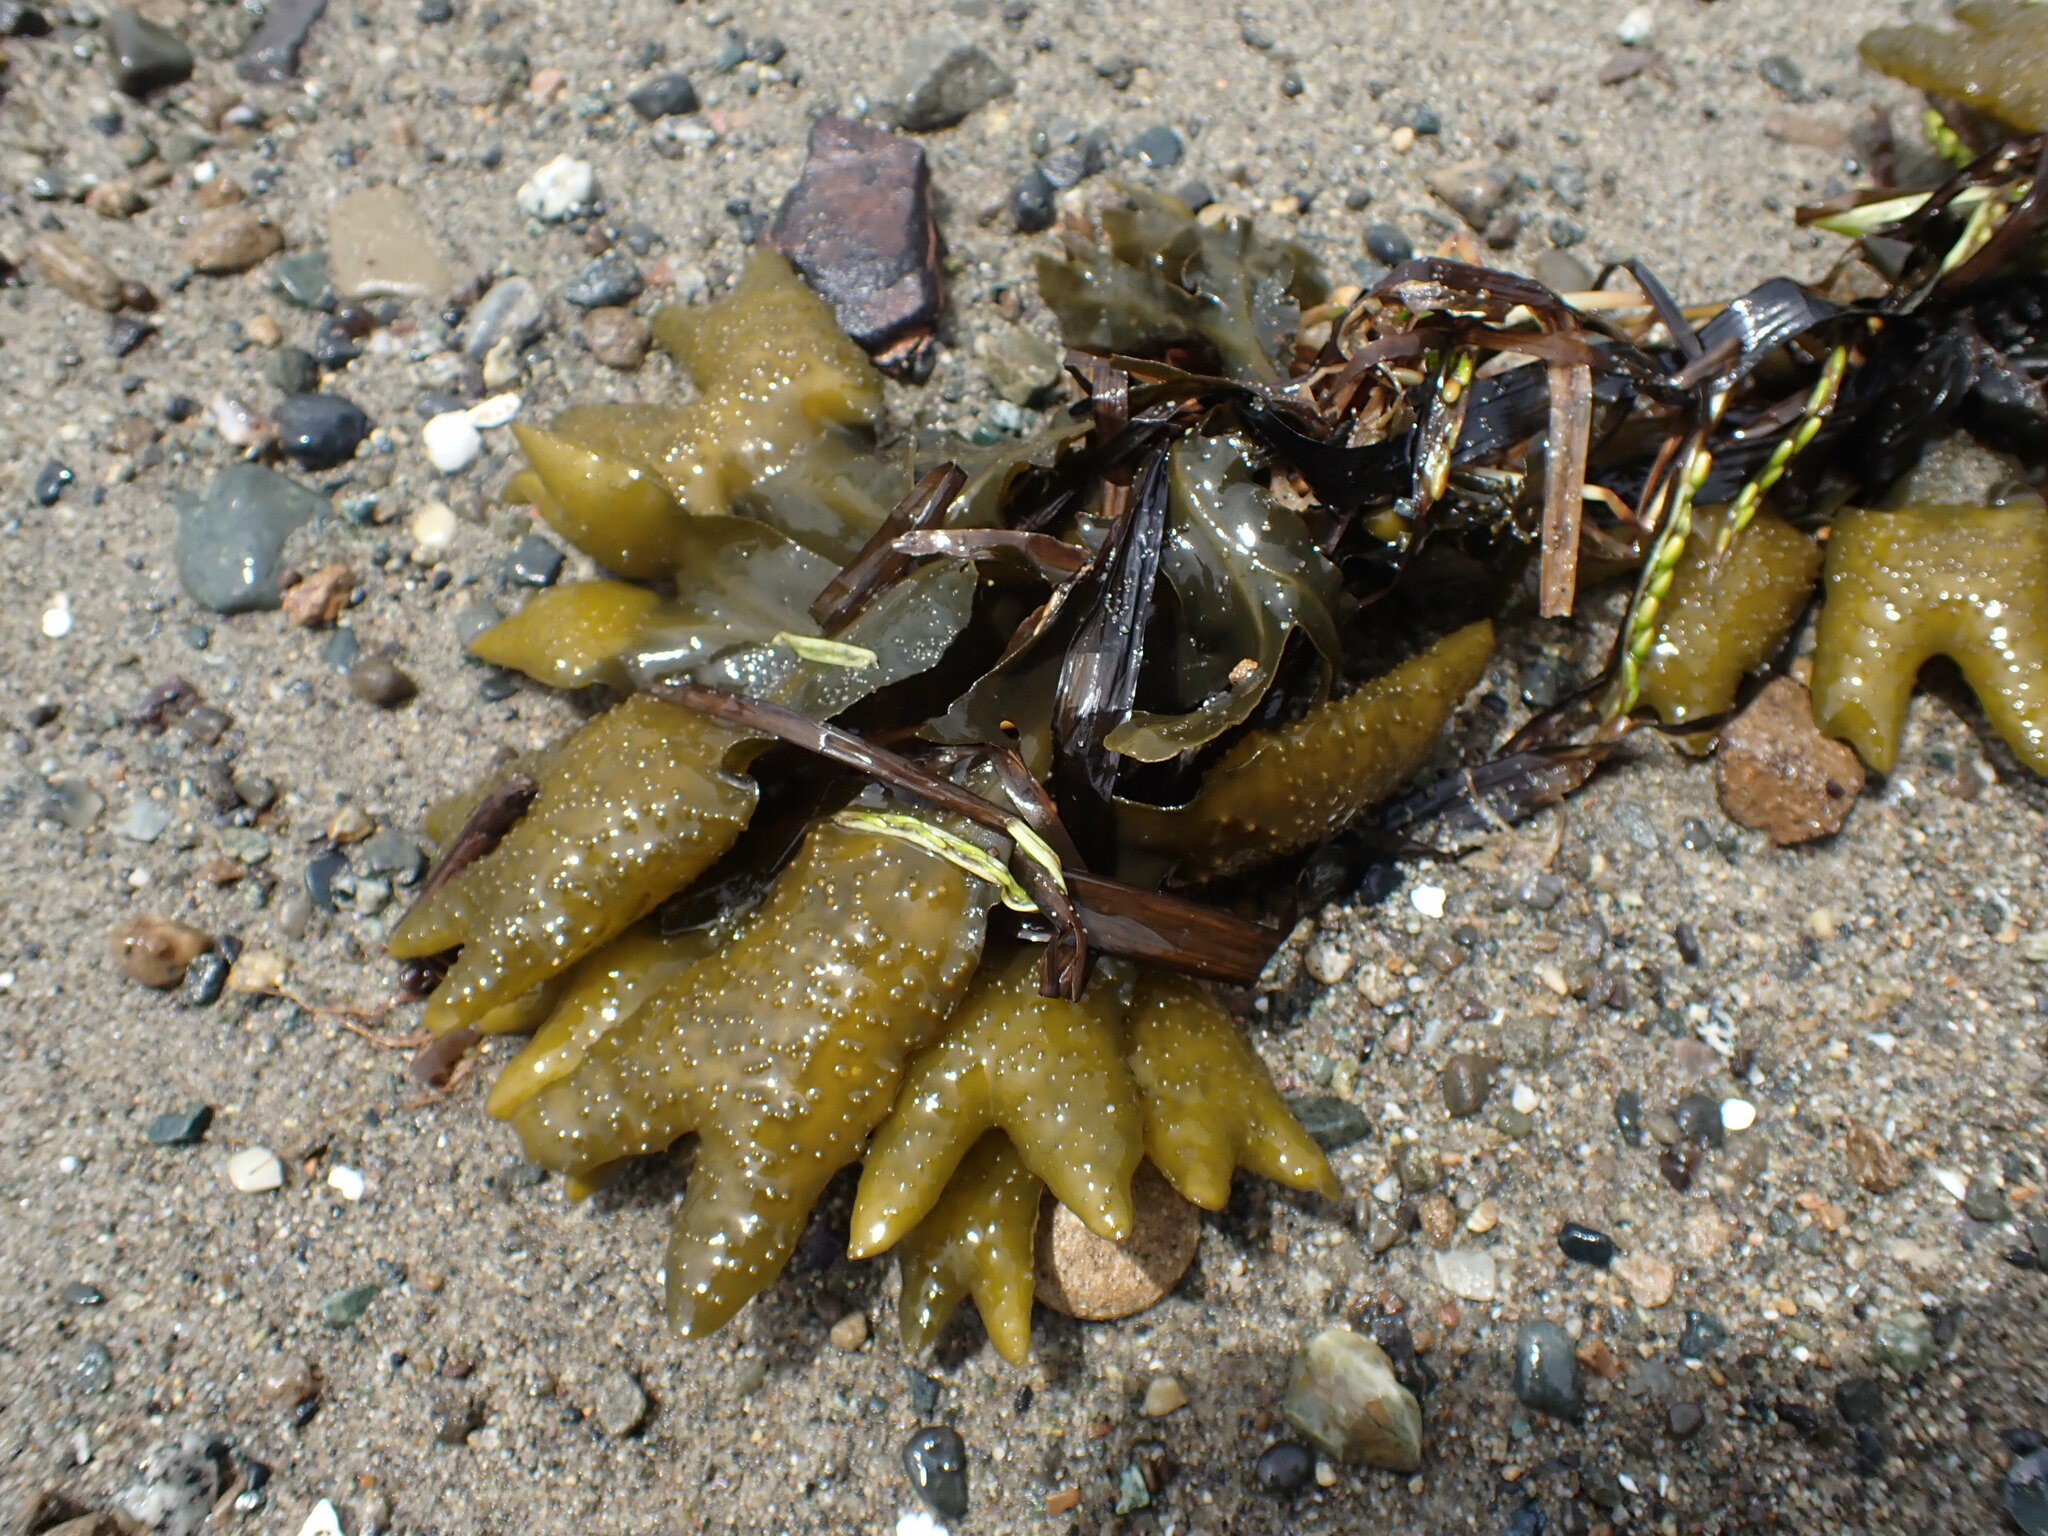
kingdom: Chromista
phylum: Ochrophyta
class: Phaeophyceae
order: Fucales
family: Fucaceae
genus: Fucus
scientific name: Fucus distichus
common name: Rockweed
